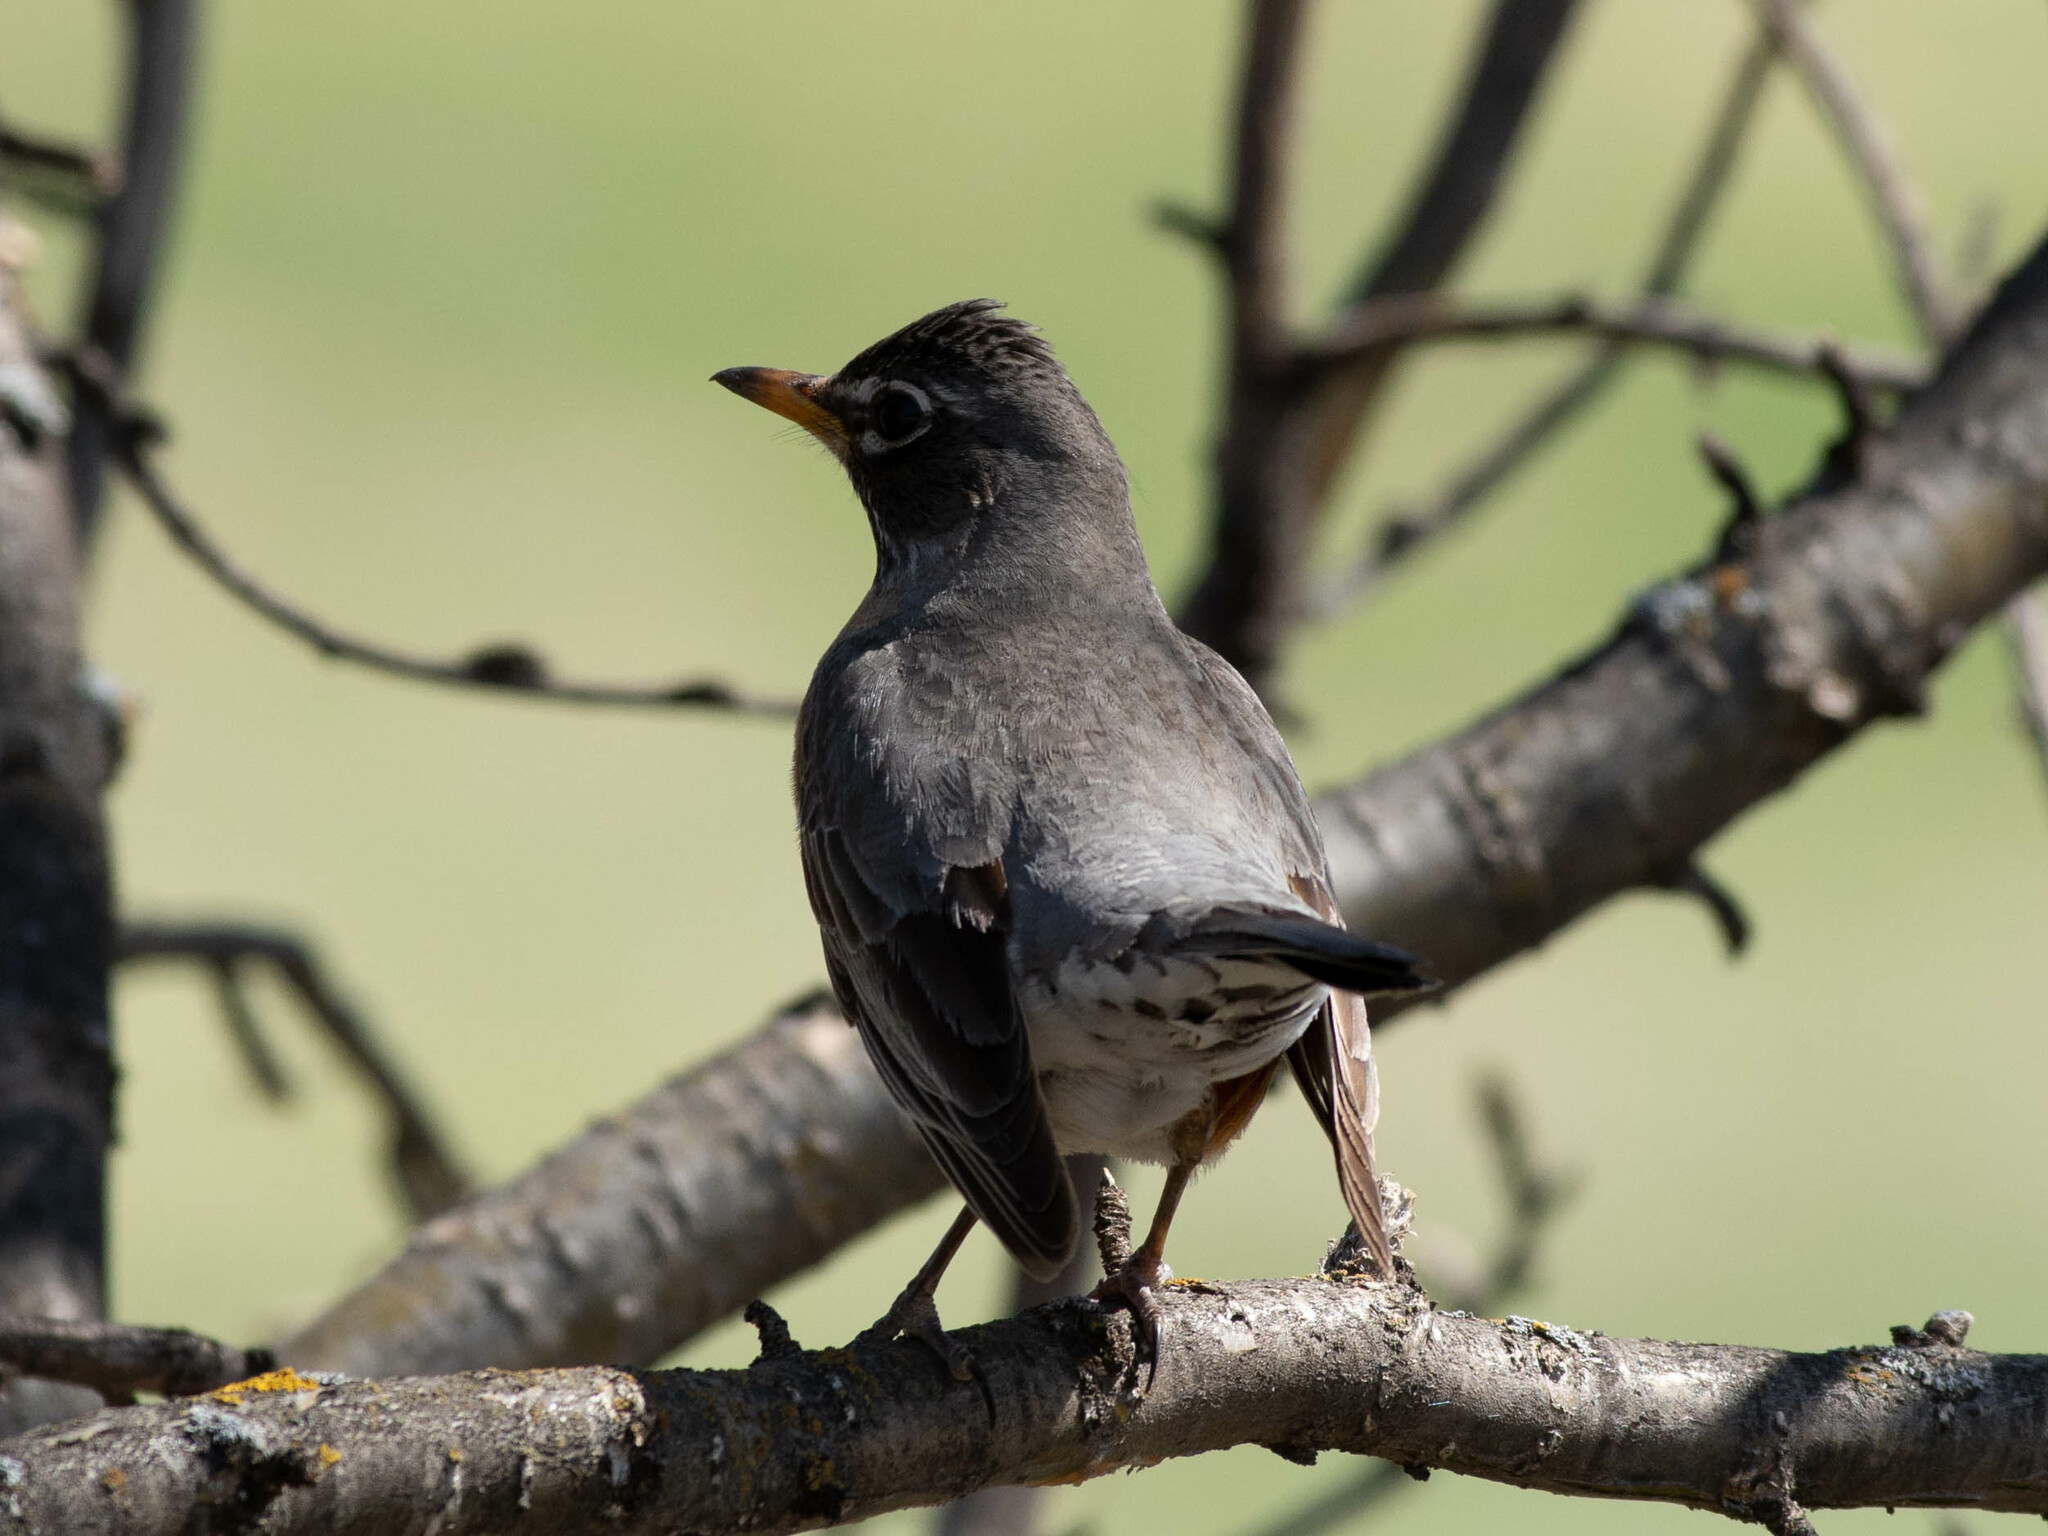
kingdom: Animalia
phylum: Chordata
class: Aves
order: Passeriformes
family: Turdidae
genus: Turdus
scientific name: Turdus migratorius
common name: American robin
